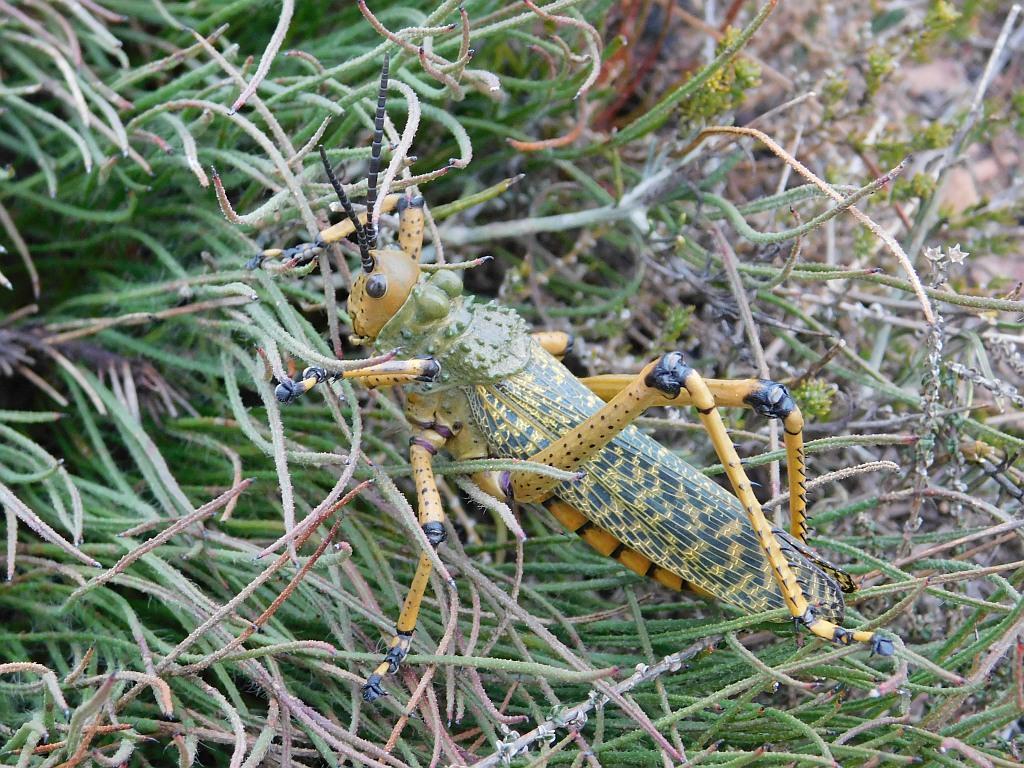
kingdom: Animalia
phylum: Arthropoda
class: Insecta
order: Orthoptera
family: Pyrgomorphidae
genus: Phymateus
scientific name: Phymateus leprosus
